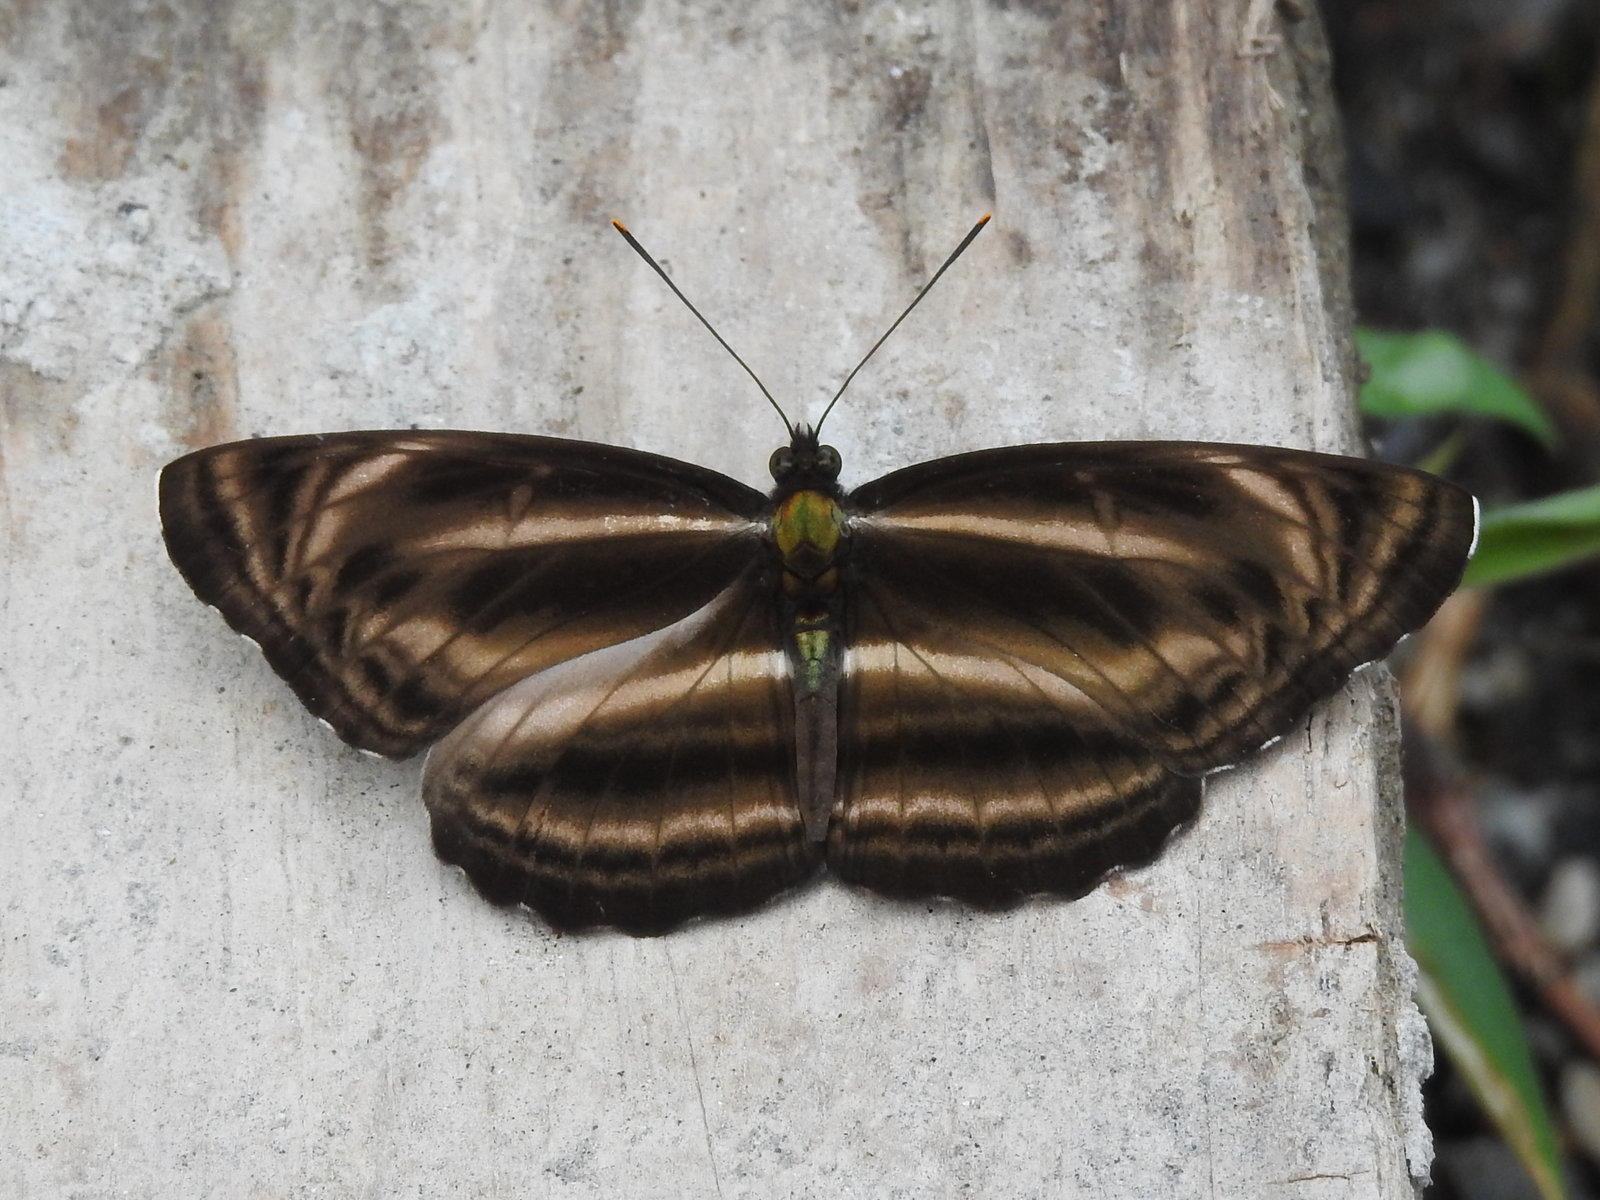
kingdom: Animalia
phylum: Arthropoda
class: Insecta
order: Lepidoptera
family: Nymphalidae
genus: Neptis
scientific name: Neptis
